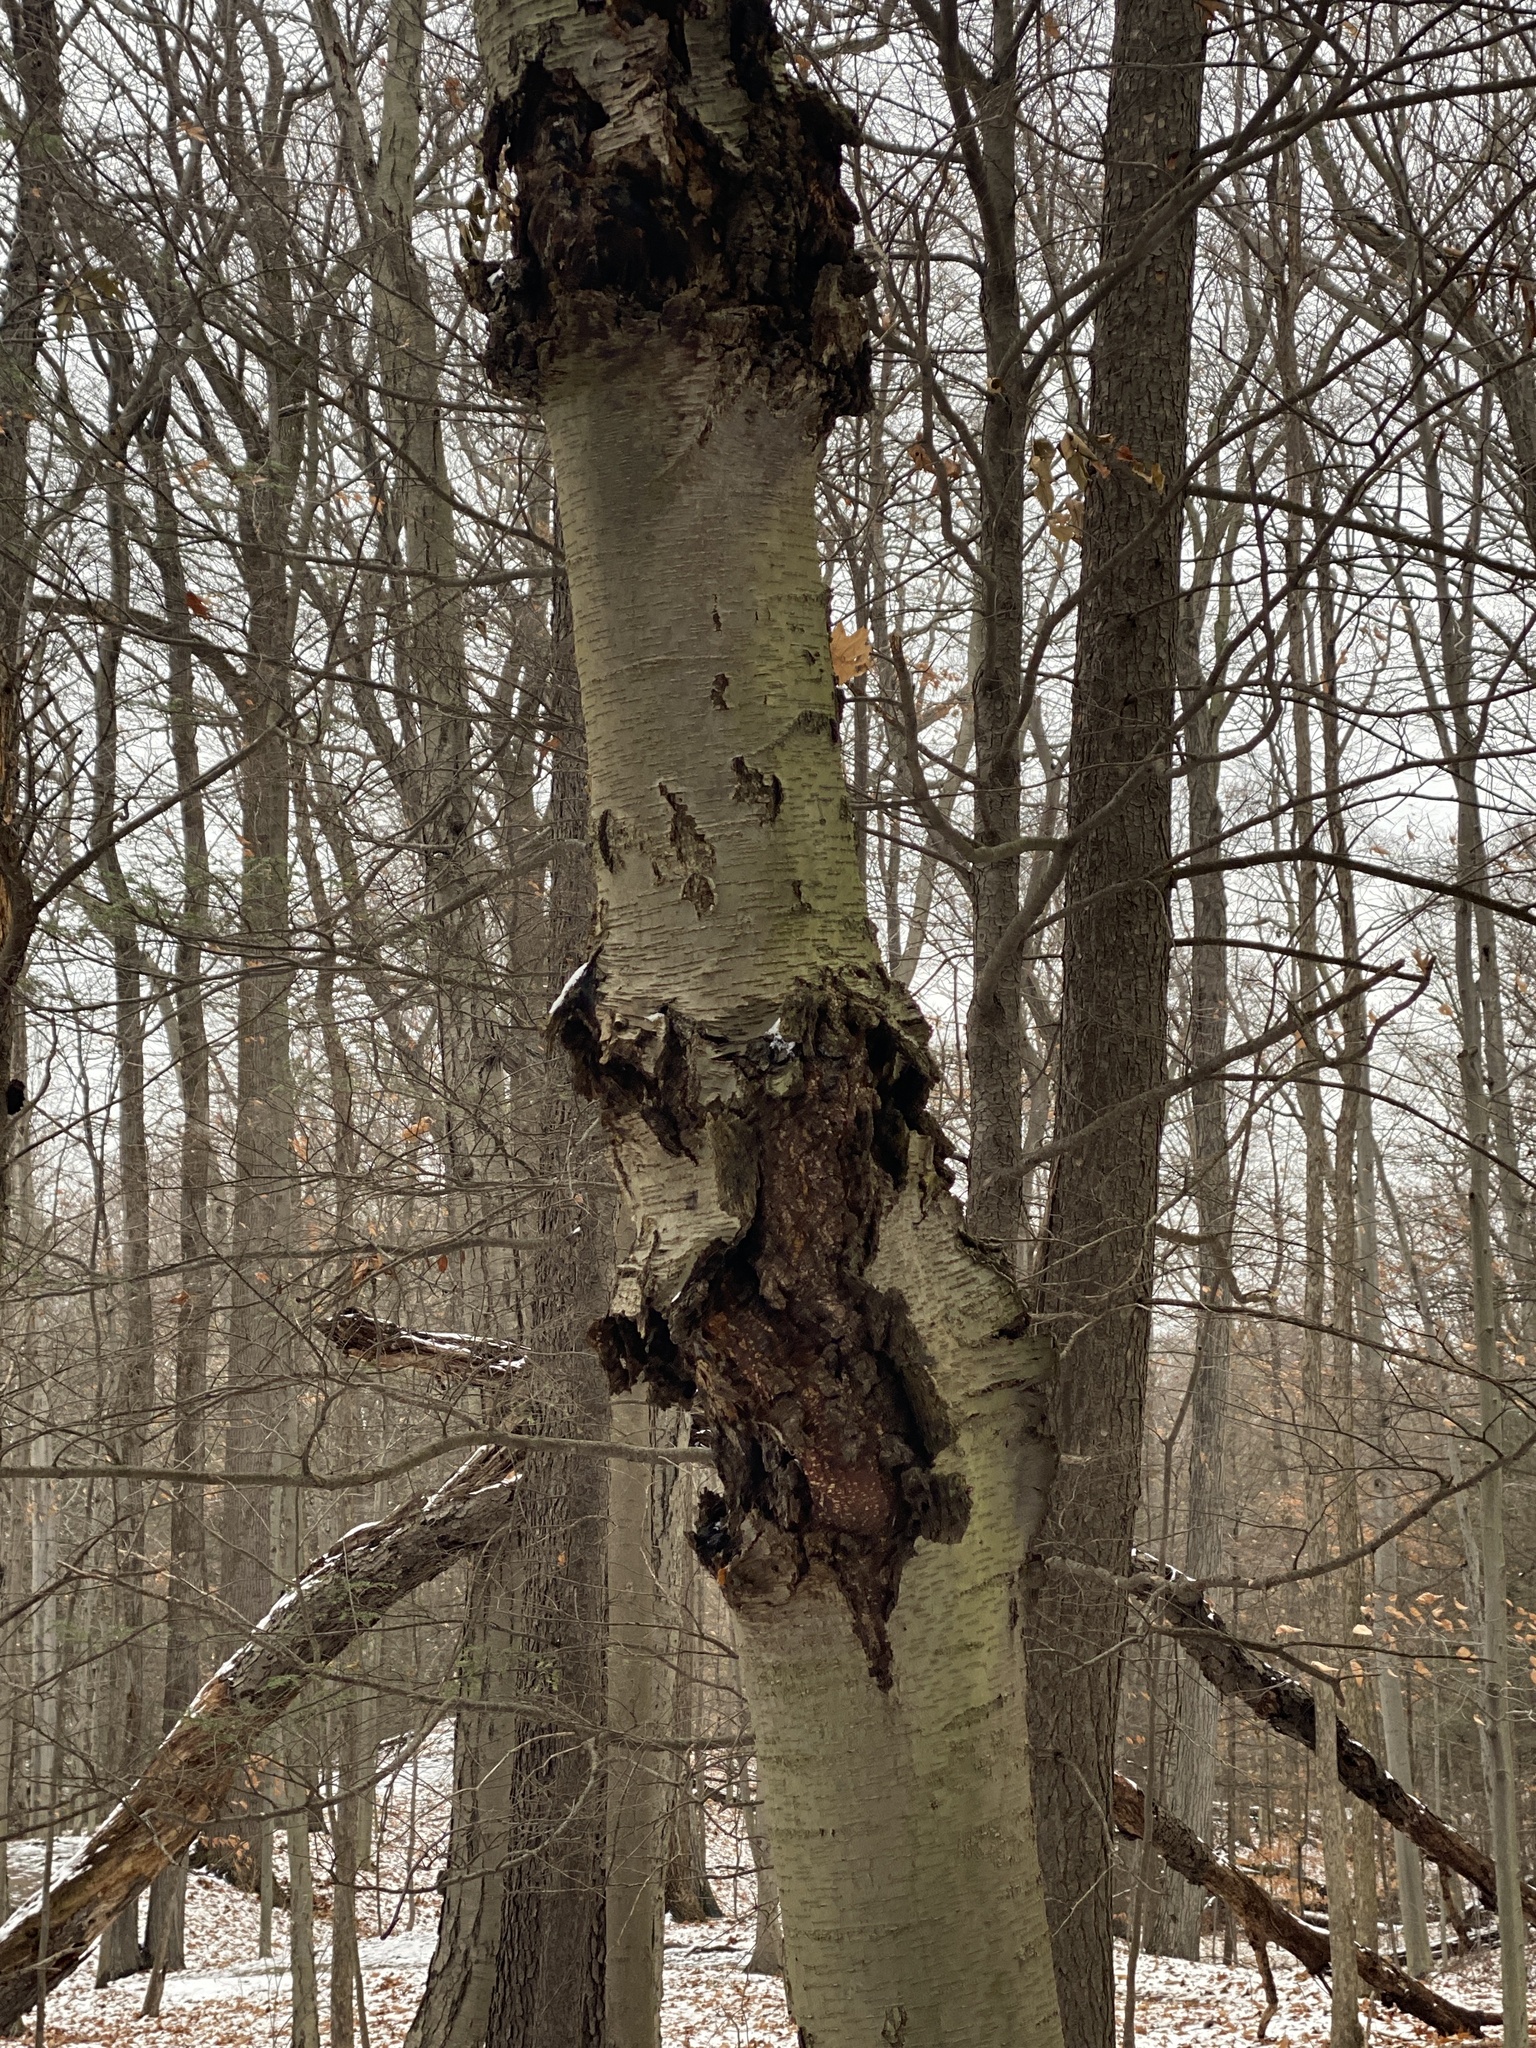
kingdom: Fungi
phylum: Ascomycota
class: Sordariomycetes
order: Hypocreales
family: Nectriaceae
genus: Neonectria
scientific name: Neonectria ditissima
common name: Apple canker
